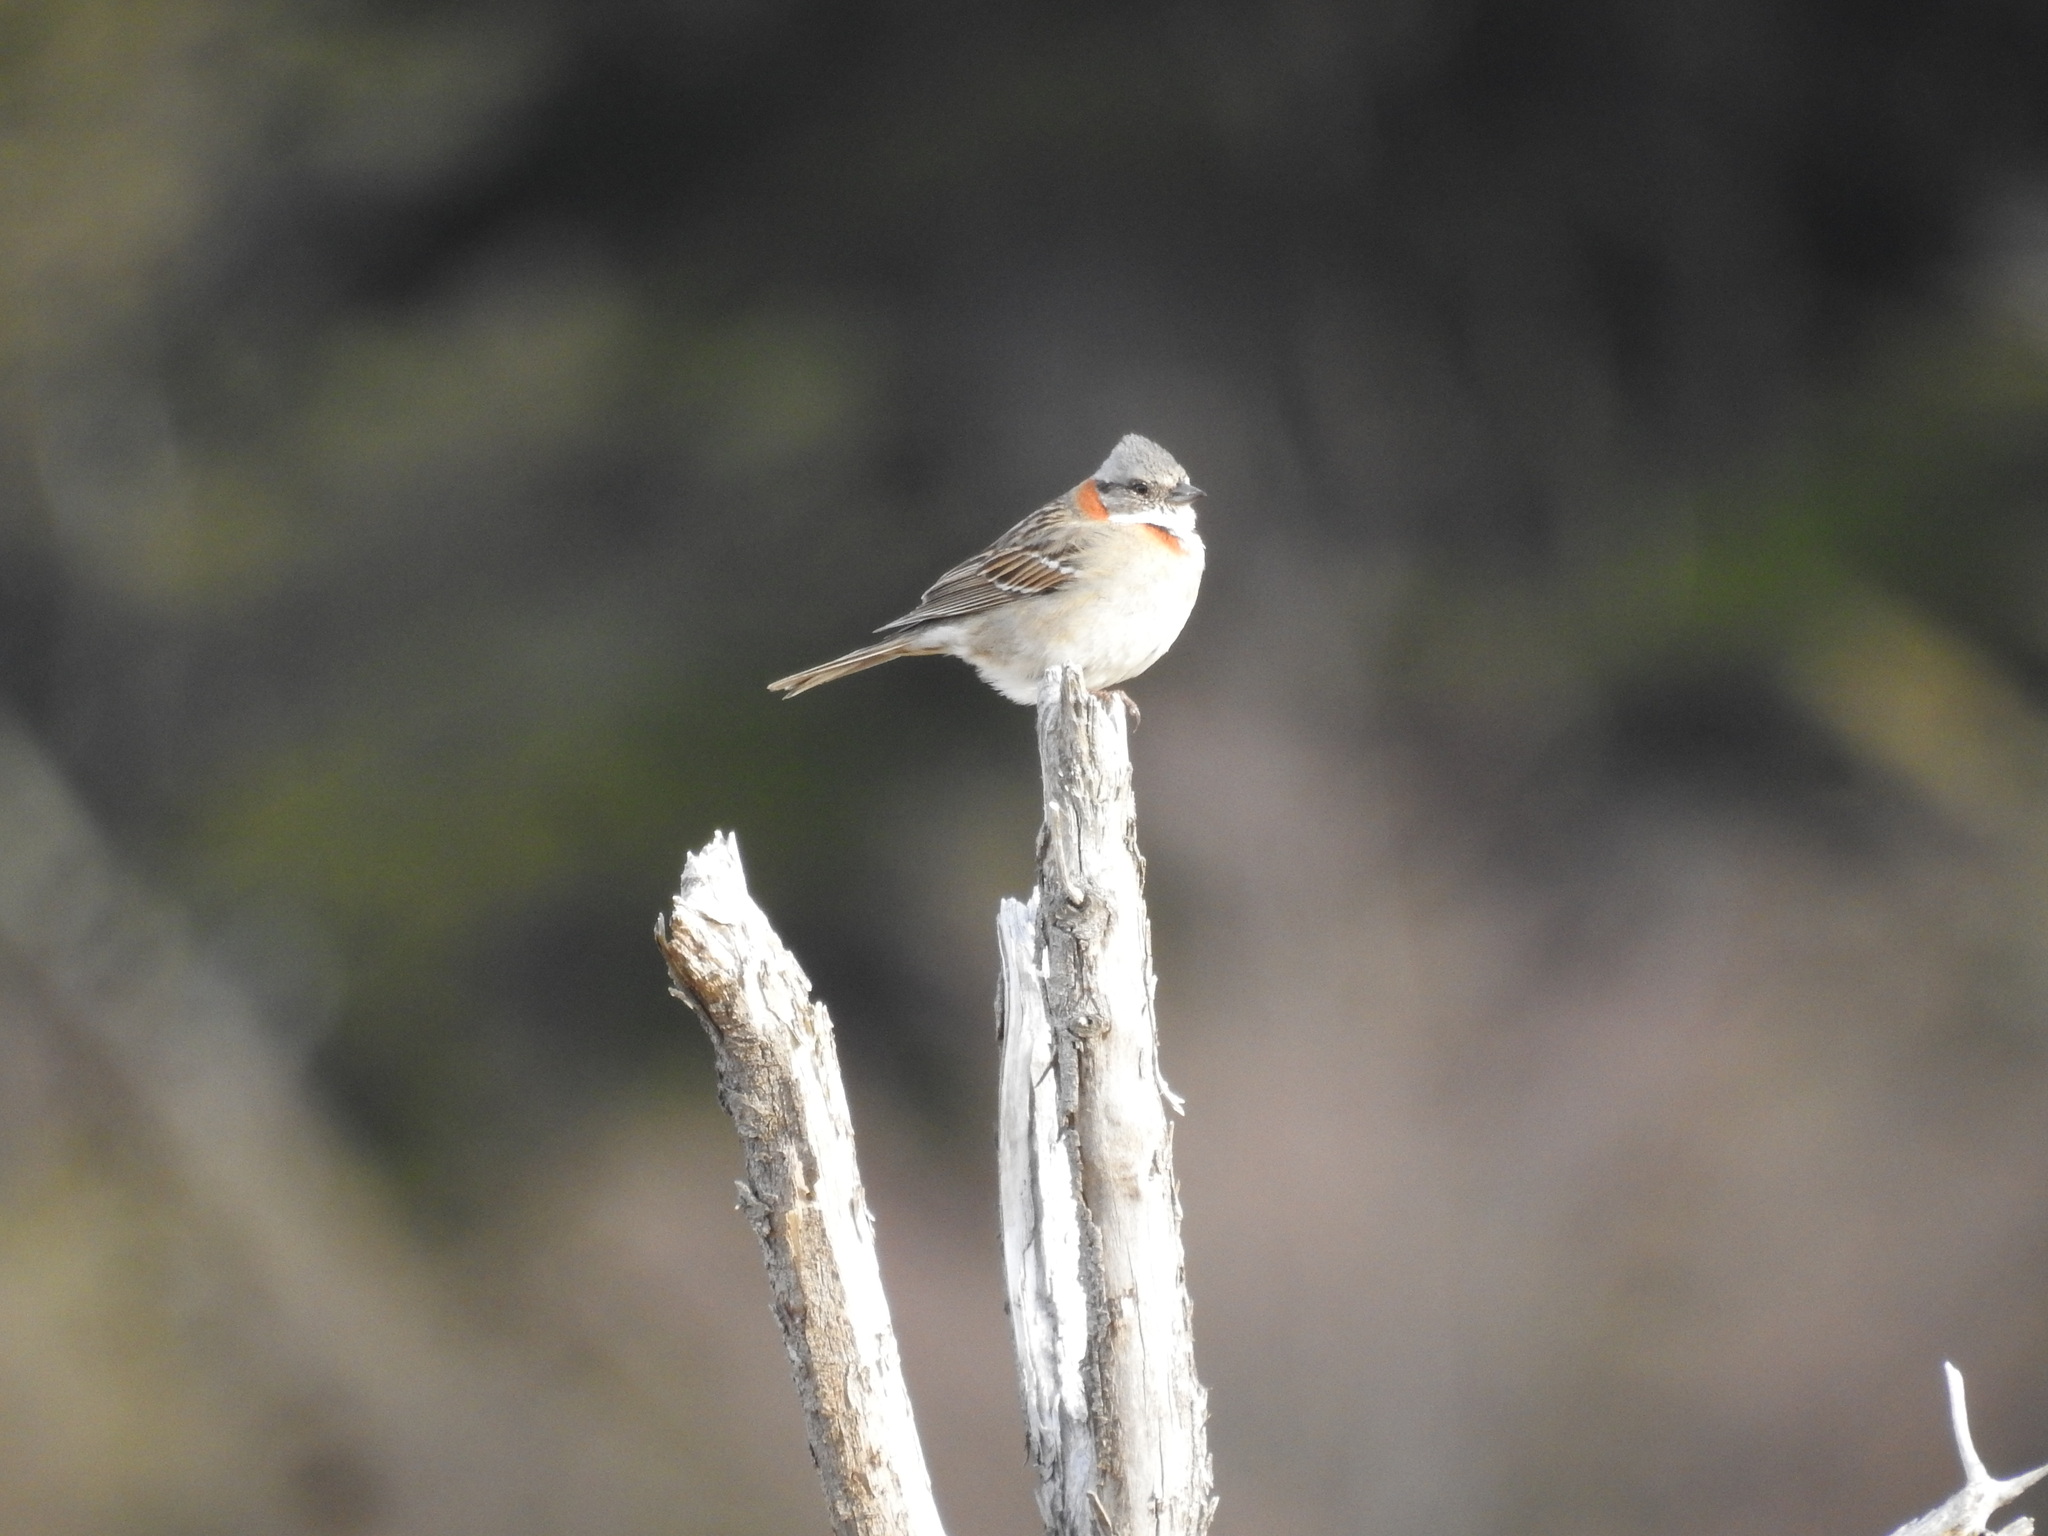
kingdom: Animalia
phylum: Chordata
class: Aves
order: Passeriformes
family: Passerellidae
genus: Zonotrichia
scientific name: Zonotrichia capensis
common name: Rufous-collared sparrow
